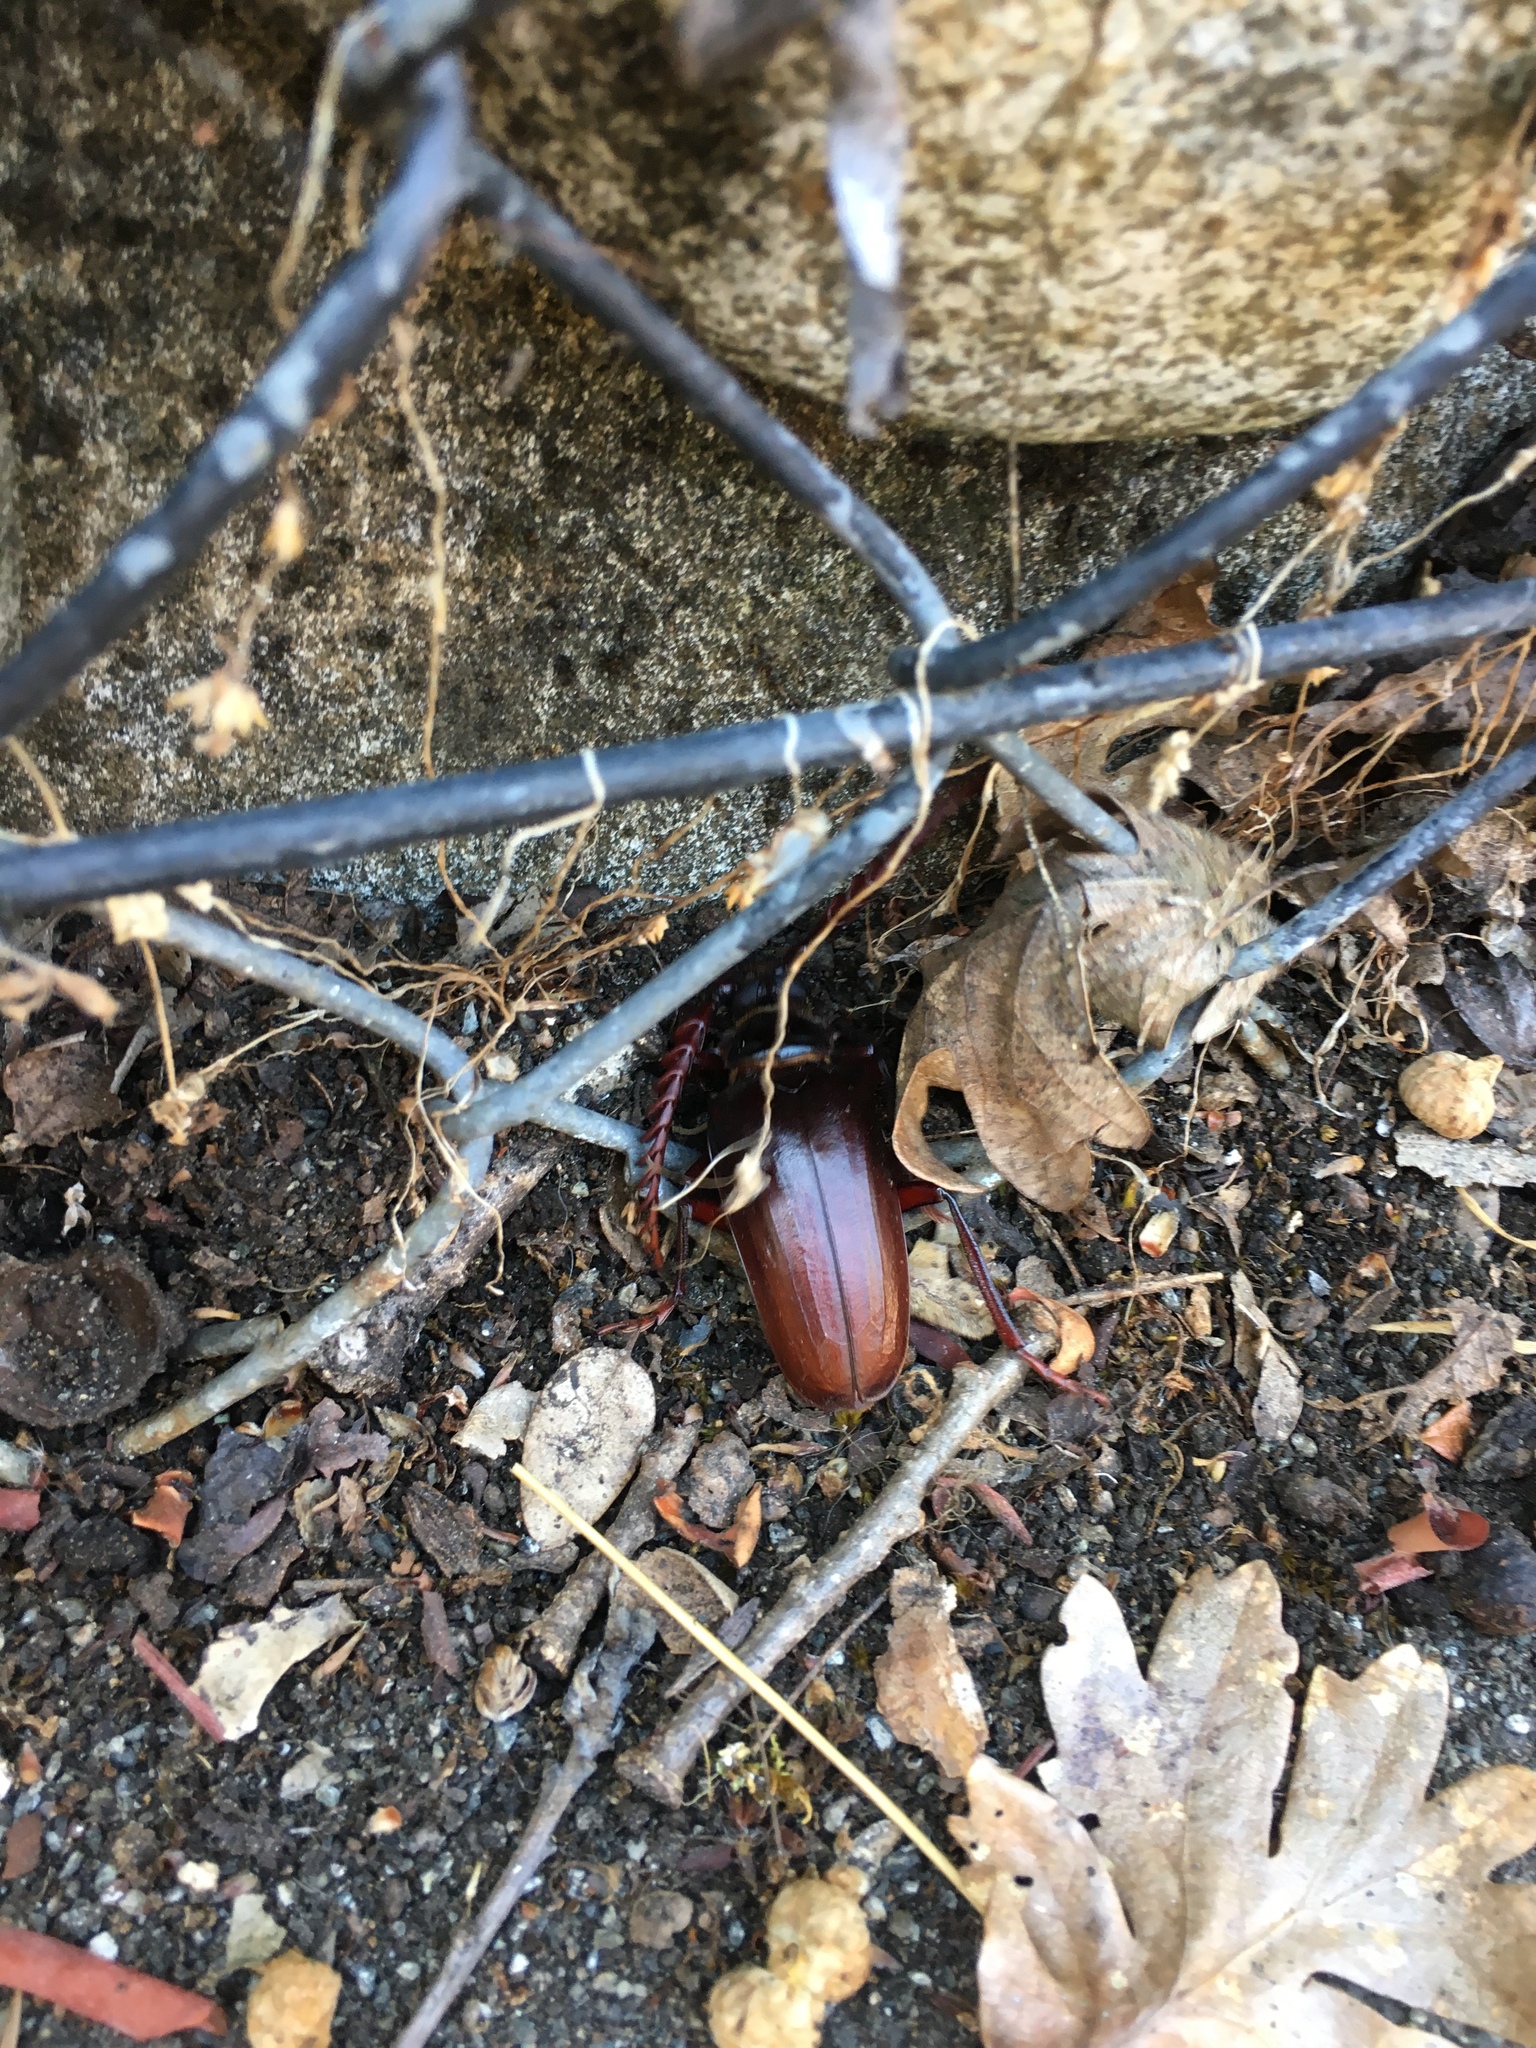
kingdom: Animalia
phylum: Arthropoda
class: Insecta
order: Coleoptera
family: Cerambycidae
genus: Prionus
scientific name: Prionus lecontei
